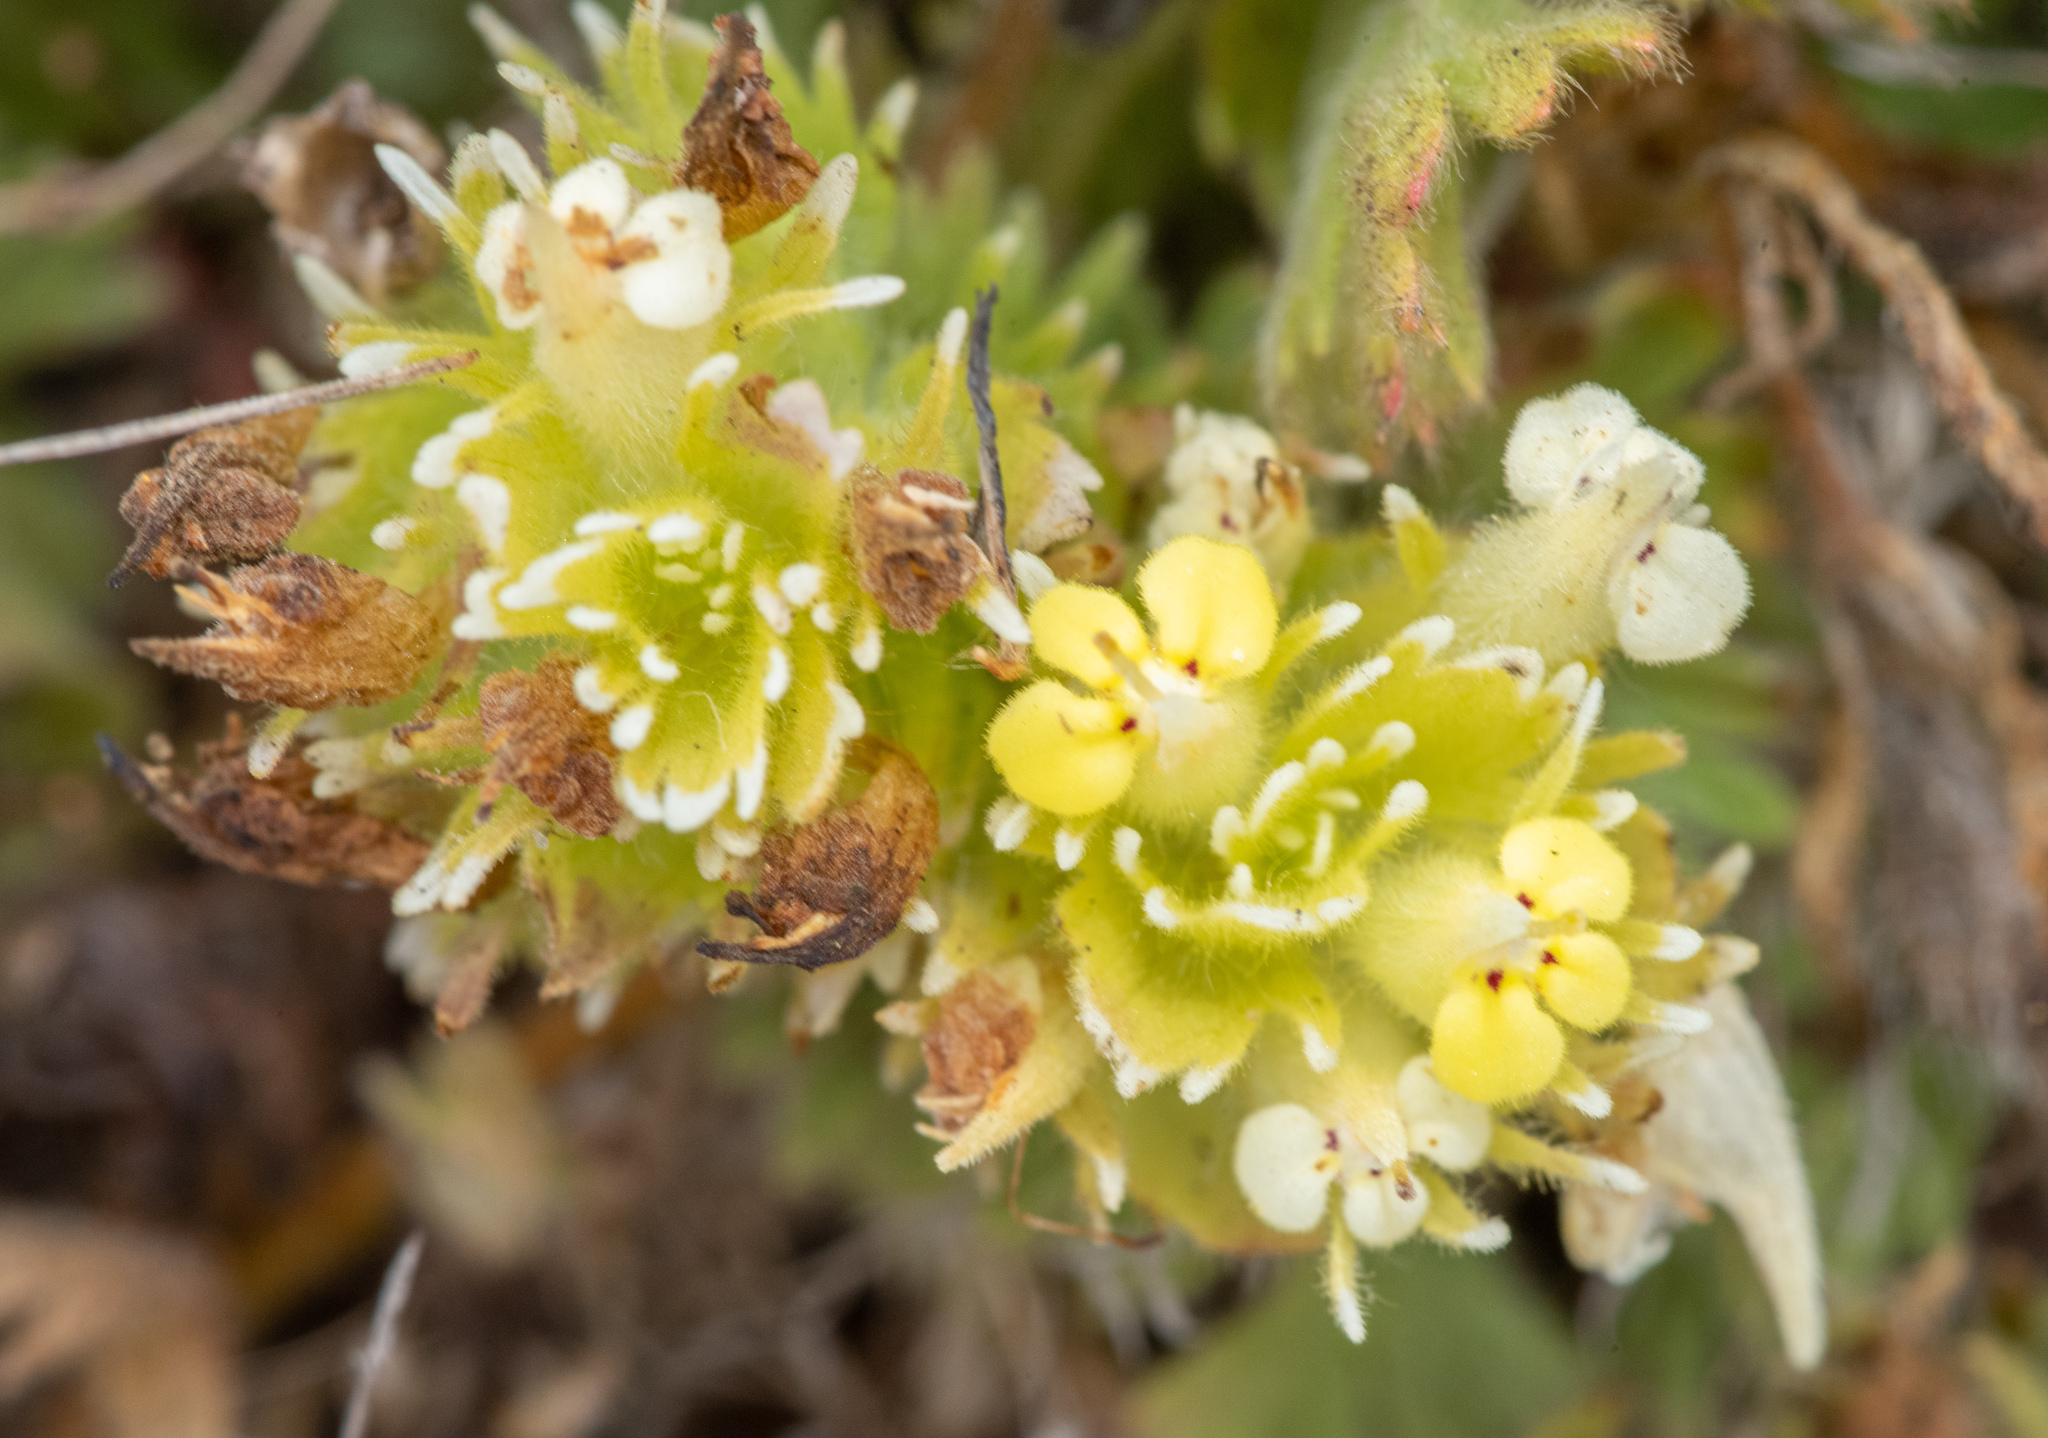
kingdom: Plantae
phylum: Tracheophyta
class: Magnoliopsida
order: Lamiales
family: Orobanchaceae
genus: Castilleja
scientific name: Castilleja ambigua
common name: Johnny-nip
